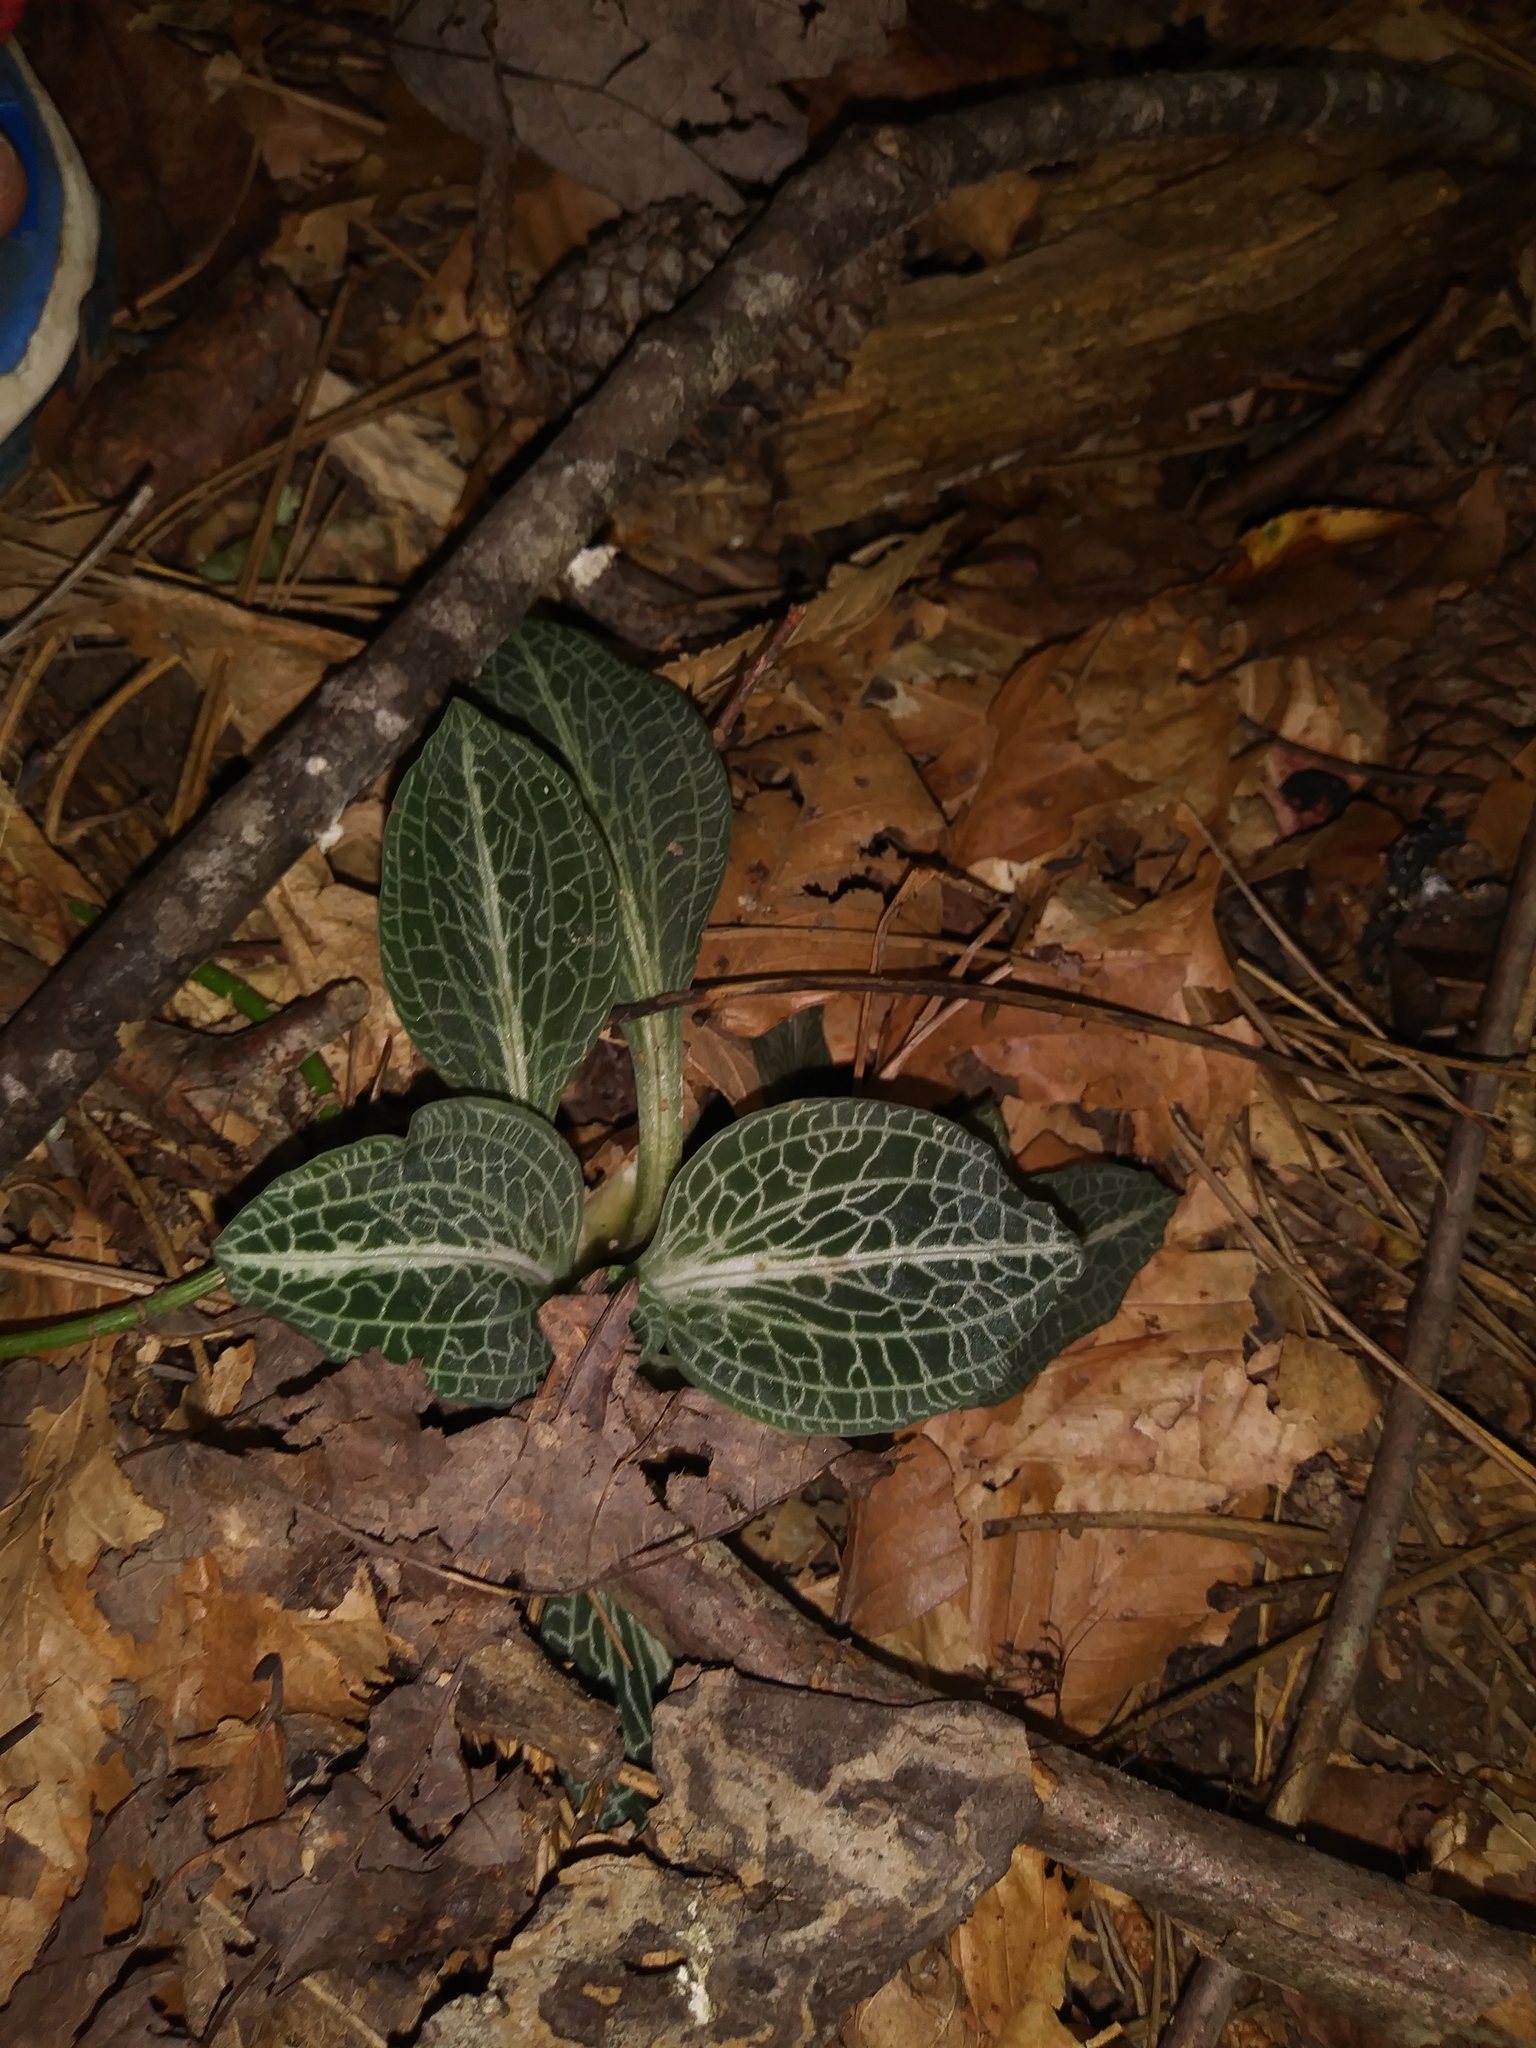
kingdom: Plantae
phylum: Tracheophyta
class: Liliopsida
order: Asparagales
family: Orchidaceae
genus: Goodyera
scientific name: Goodyera pubescens
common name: Downy rattlesnake-plantain
